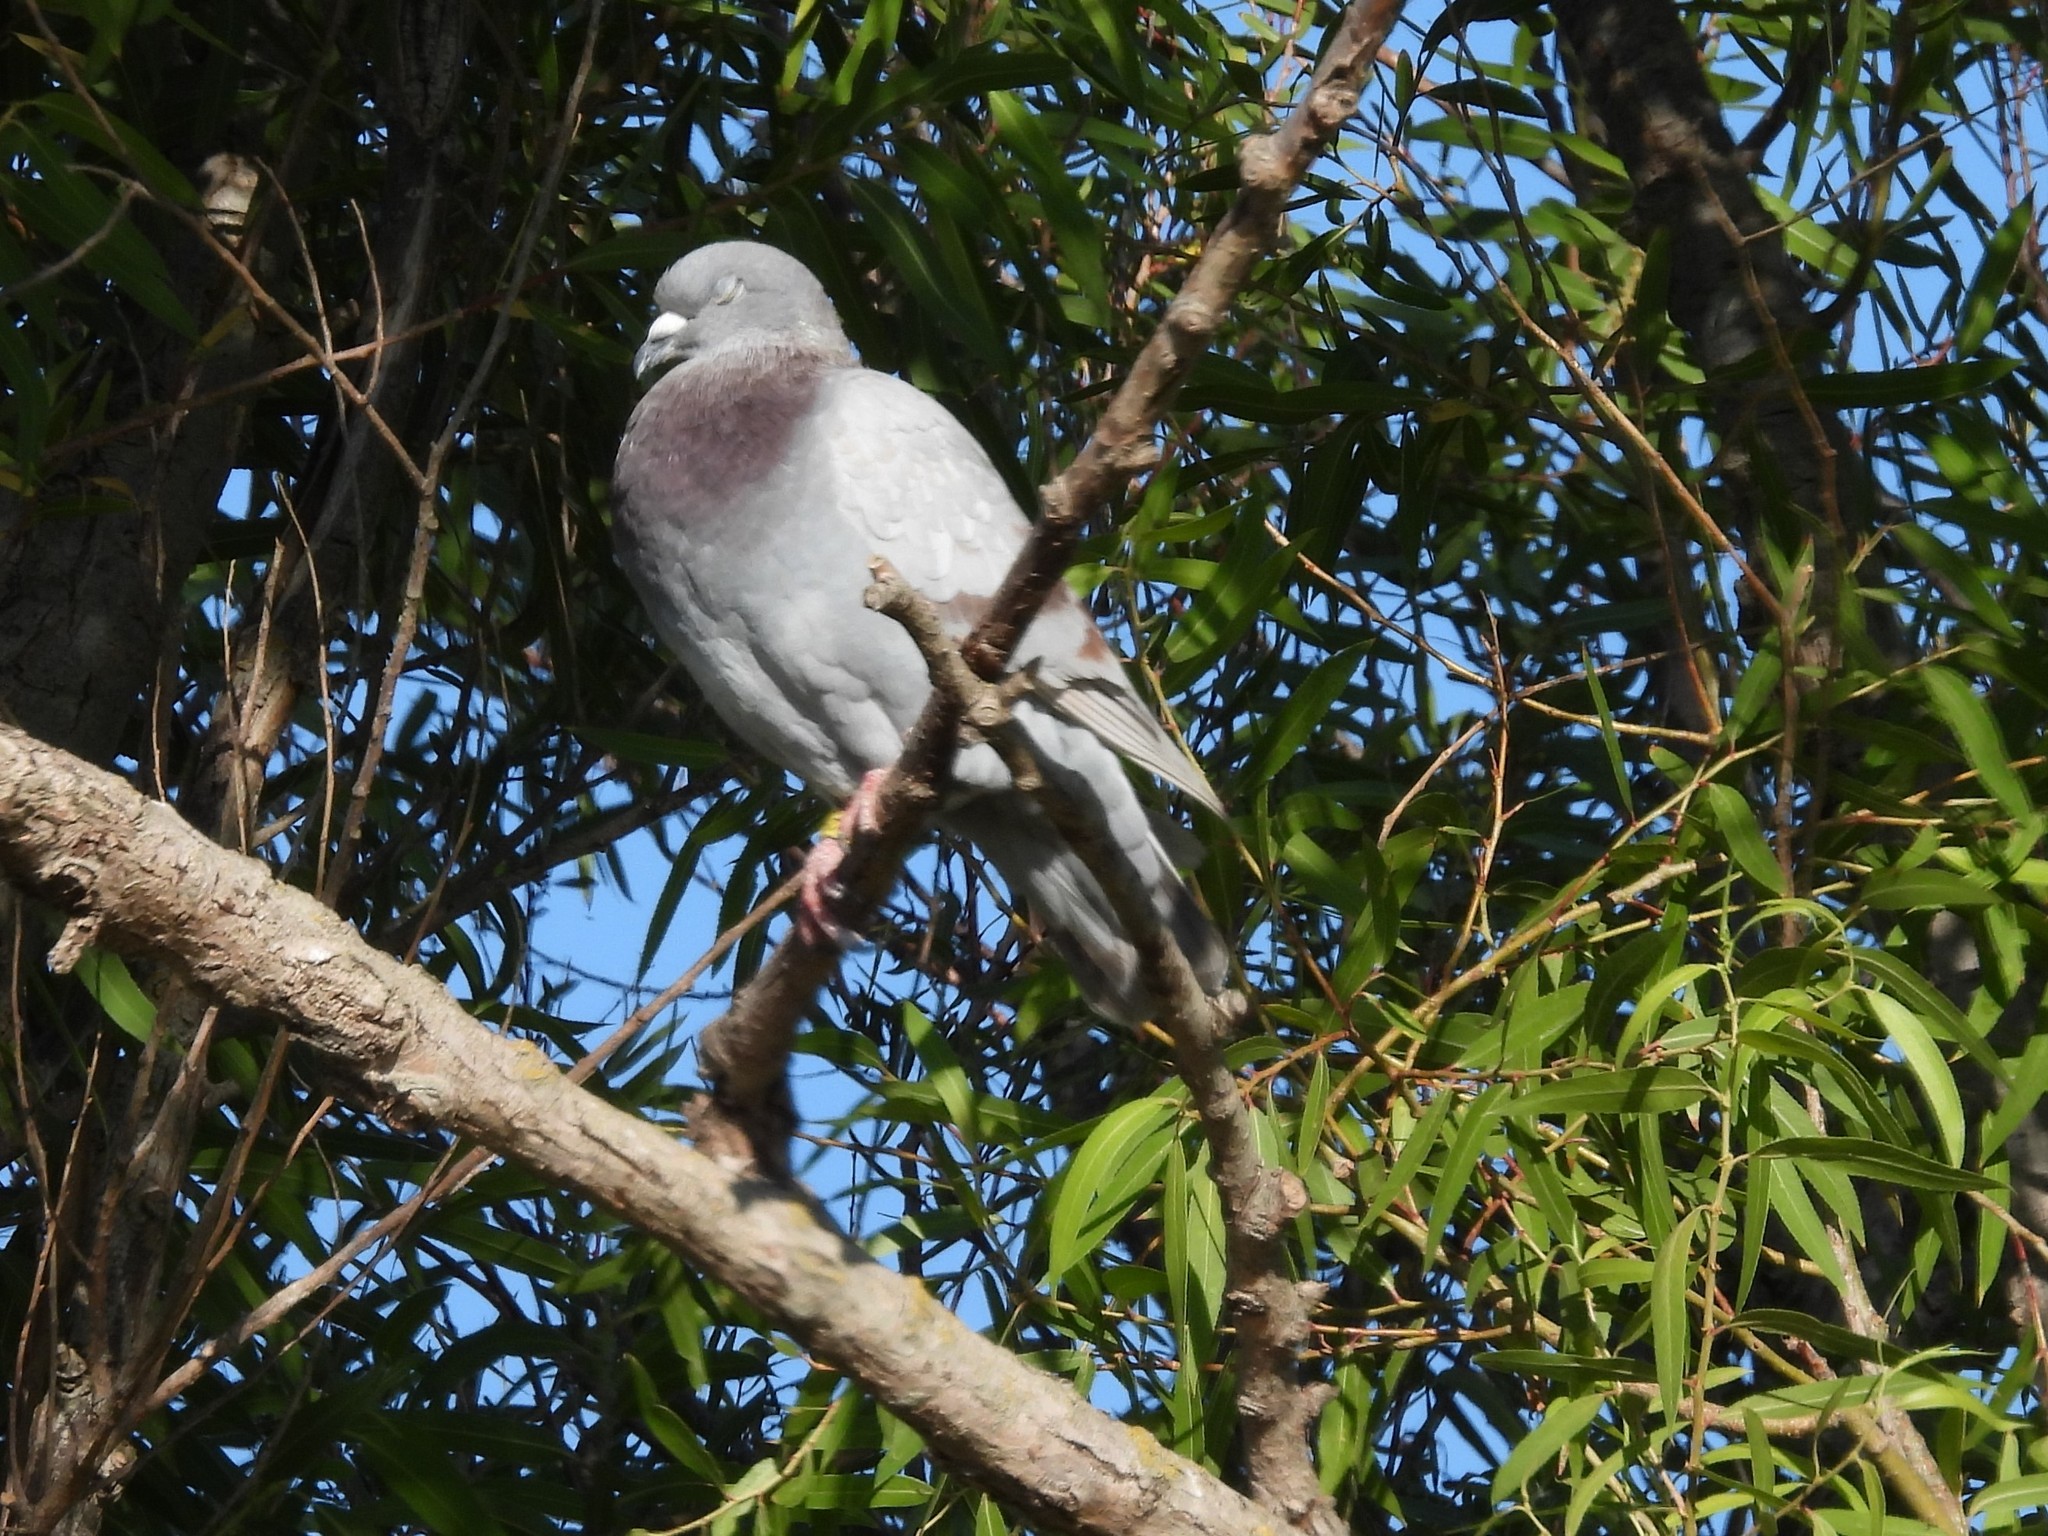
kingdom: Animalia
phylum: Chordata
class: Aves
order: Columbiformes
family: Columbidae
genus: Columba
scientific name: Columba livia
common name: Rock pigeon
